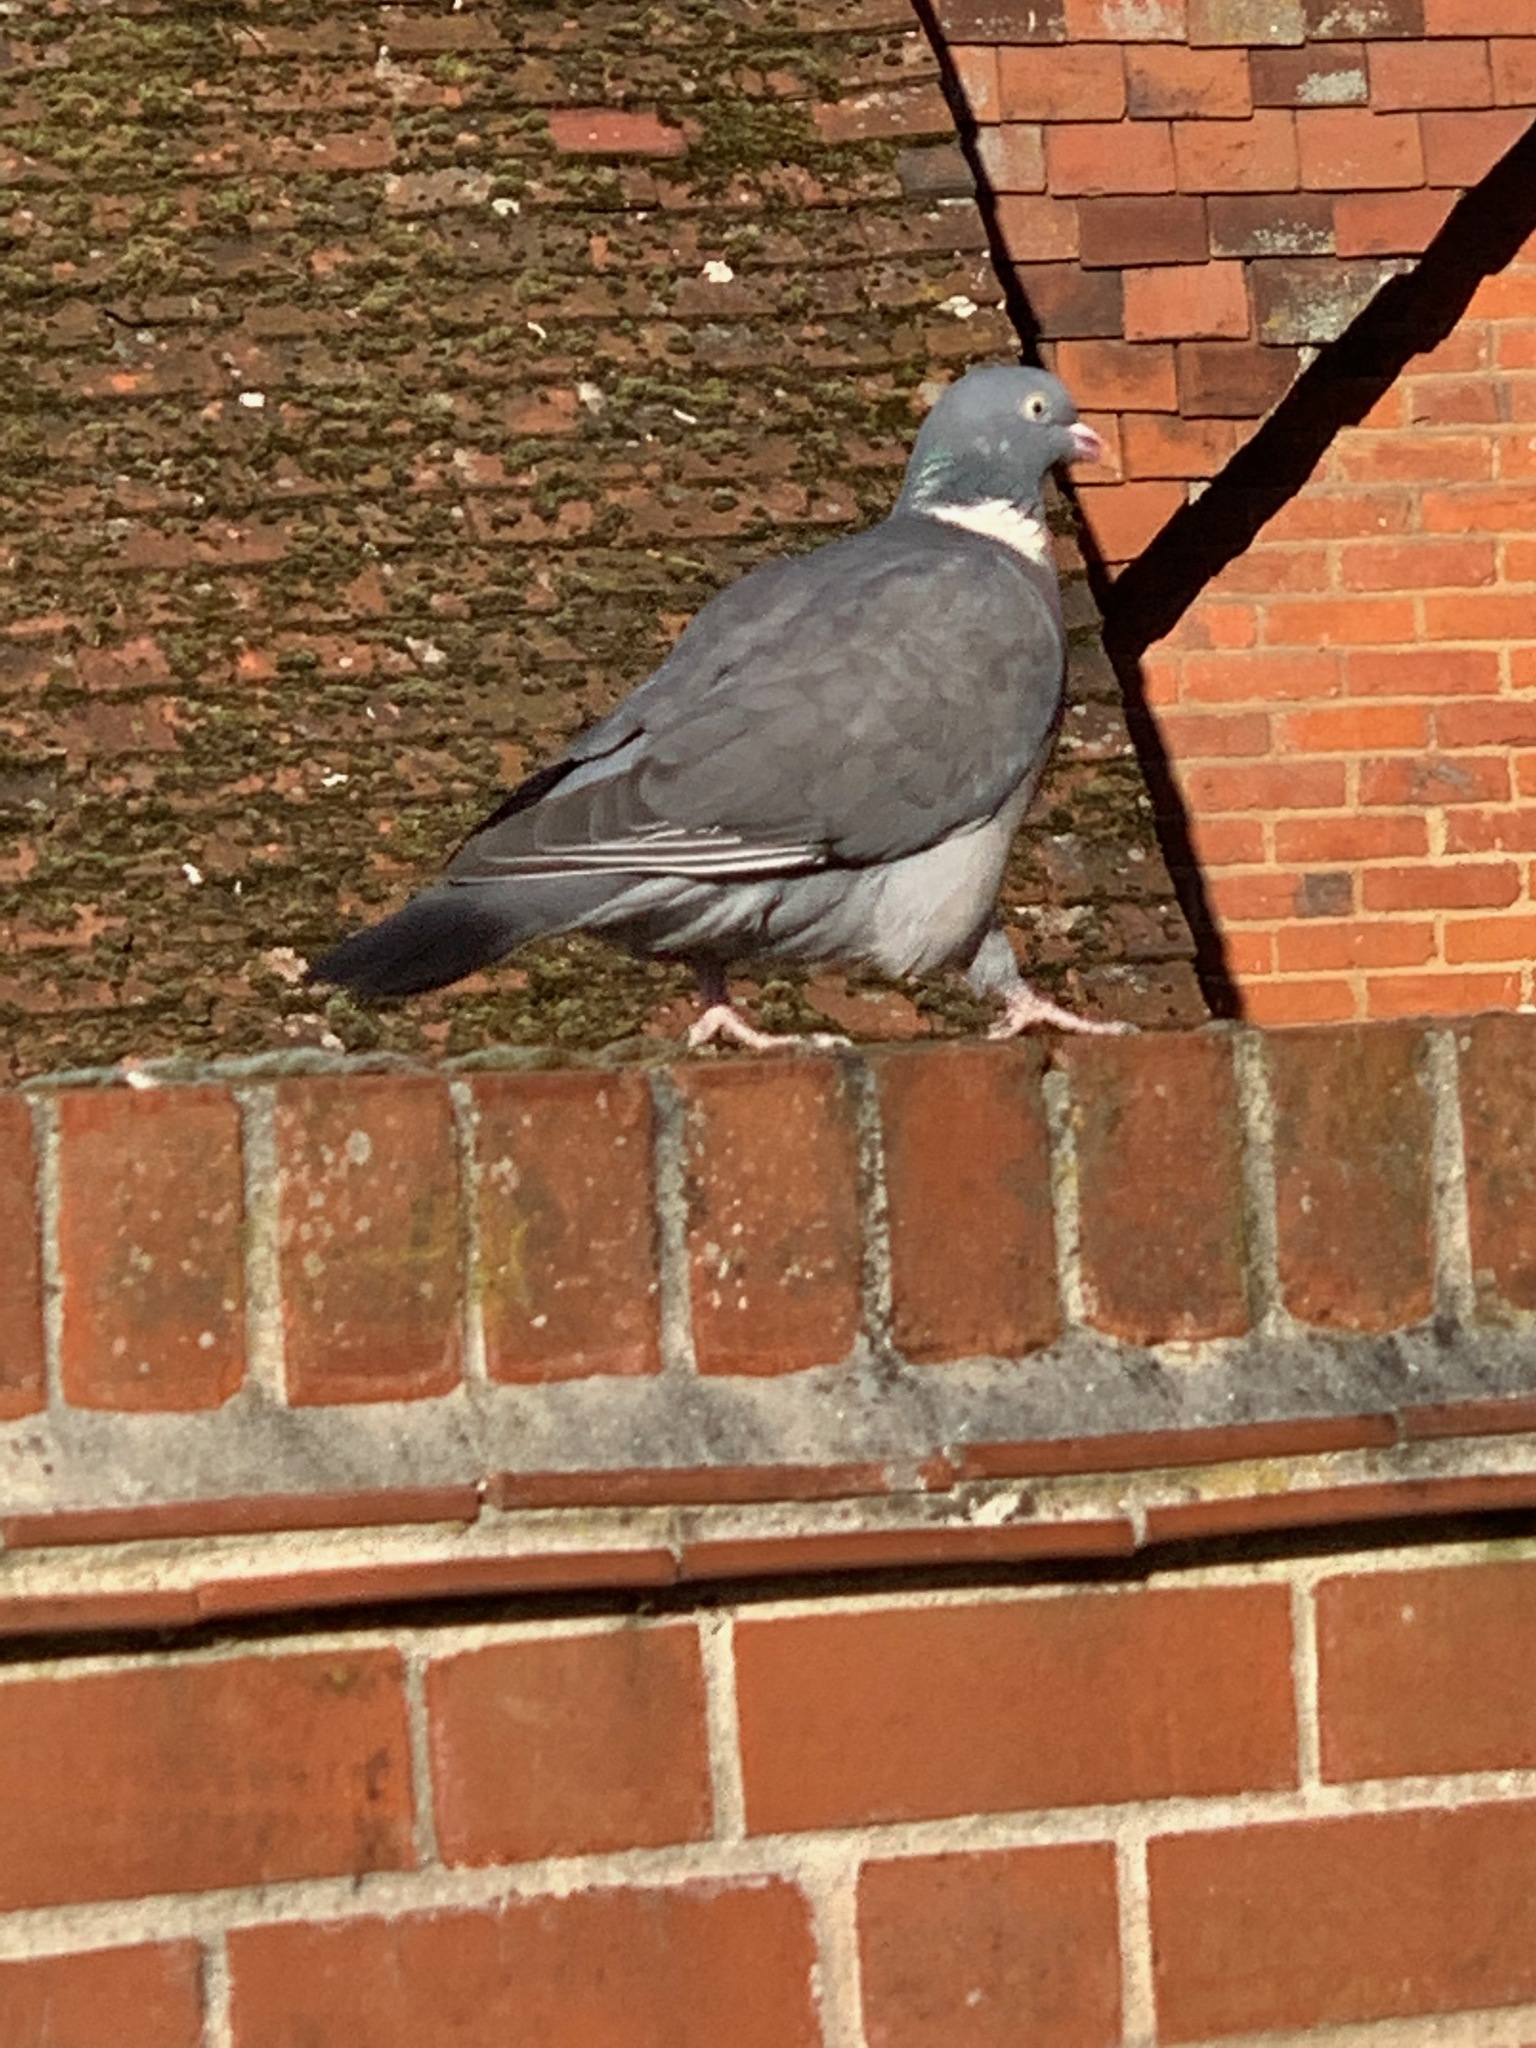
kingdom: Animalia
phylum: Chordata
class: Aves
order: Columbiformes
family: Columbidae
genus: Columba
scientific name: Columba palumbus
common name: Common wood pigeon
